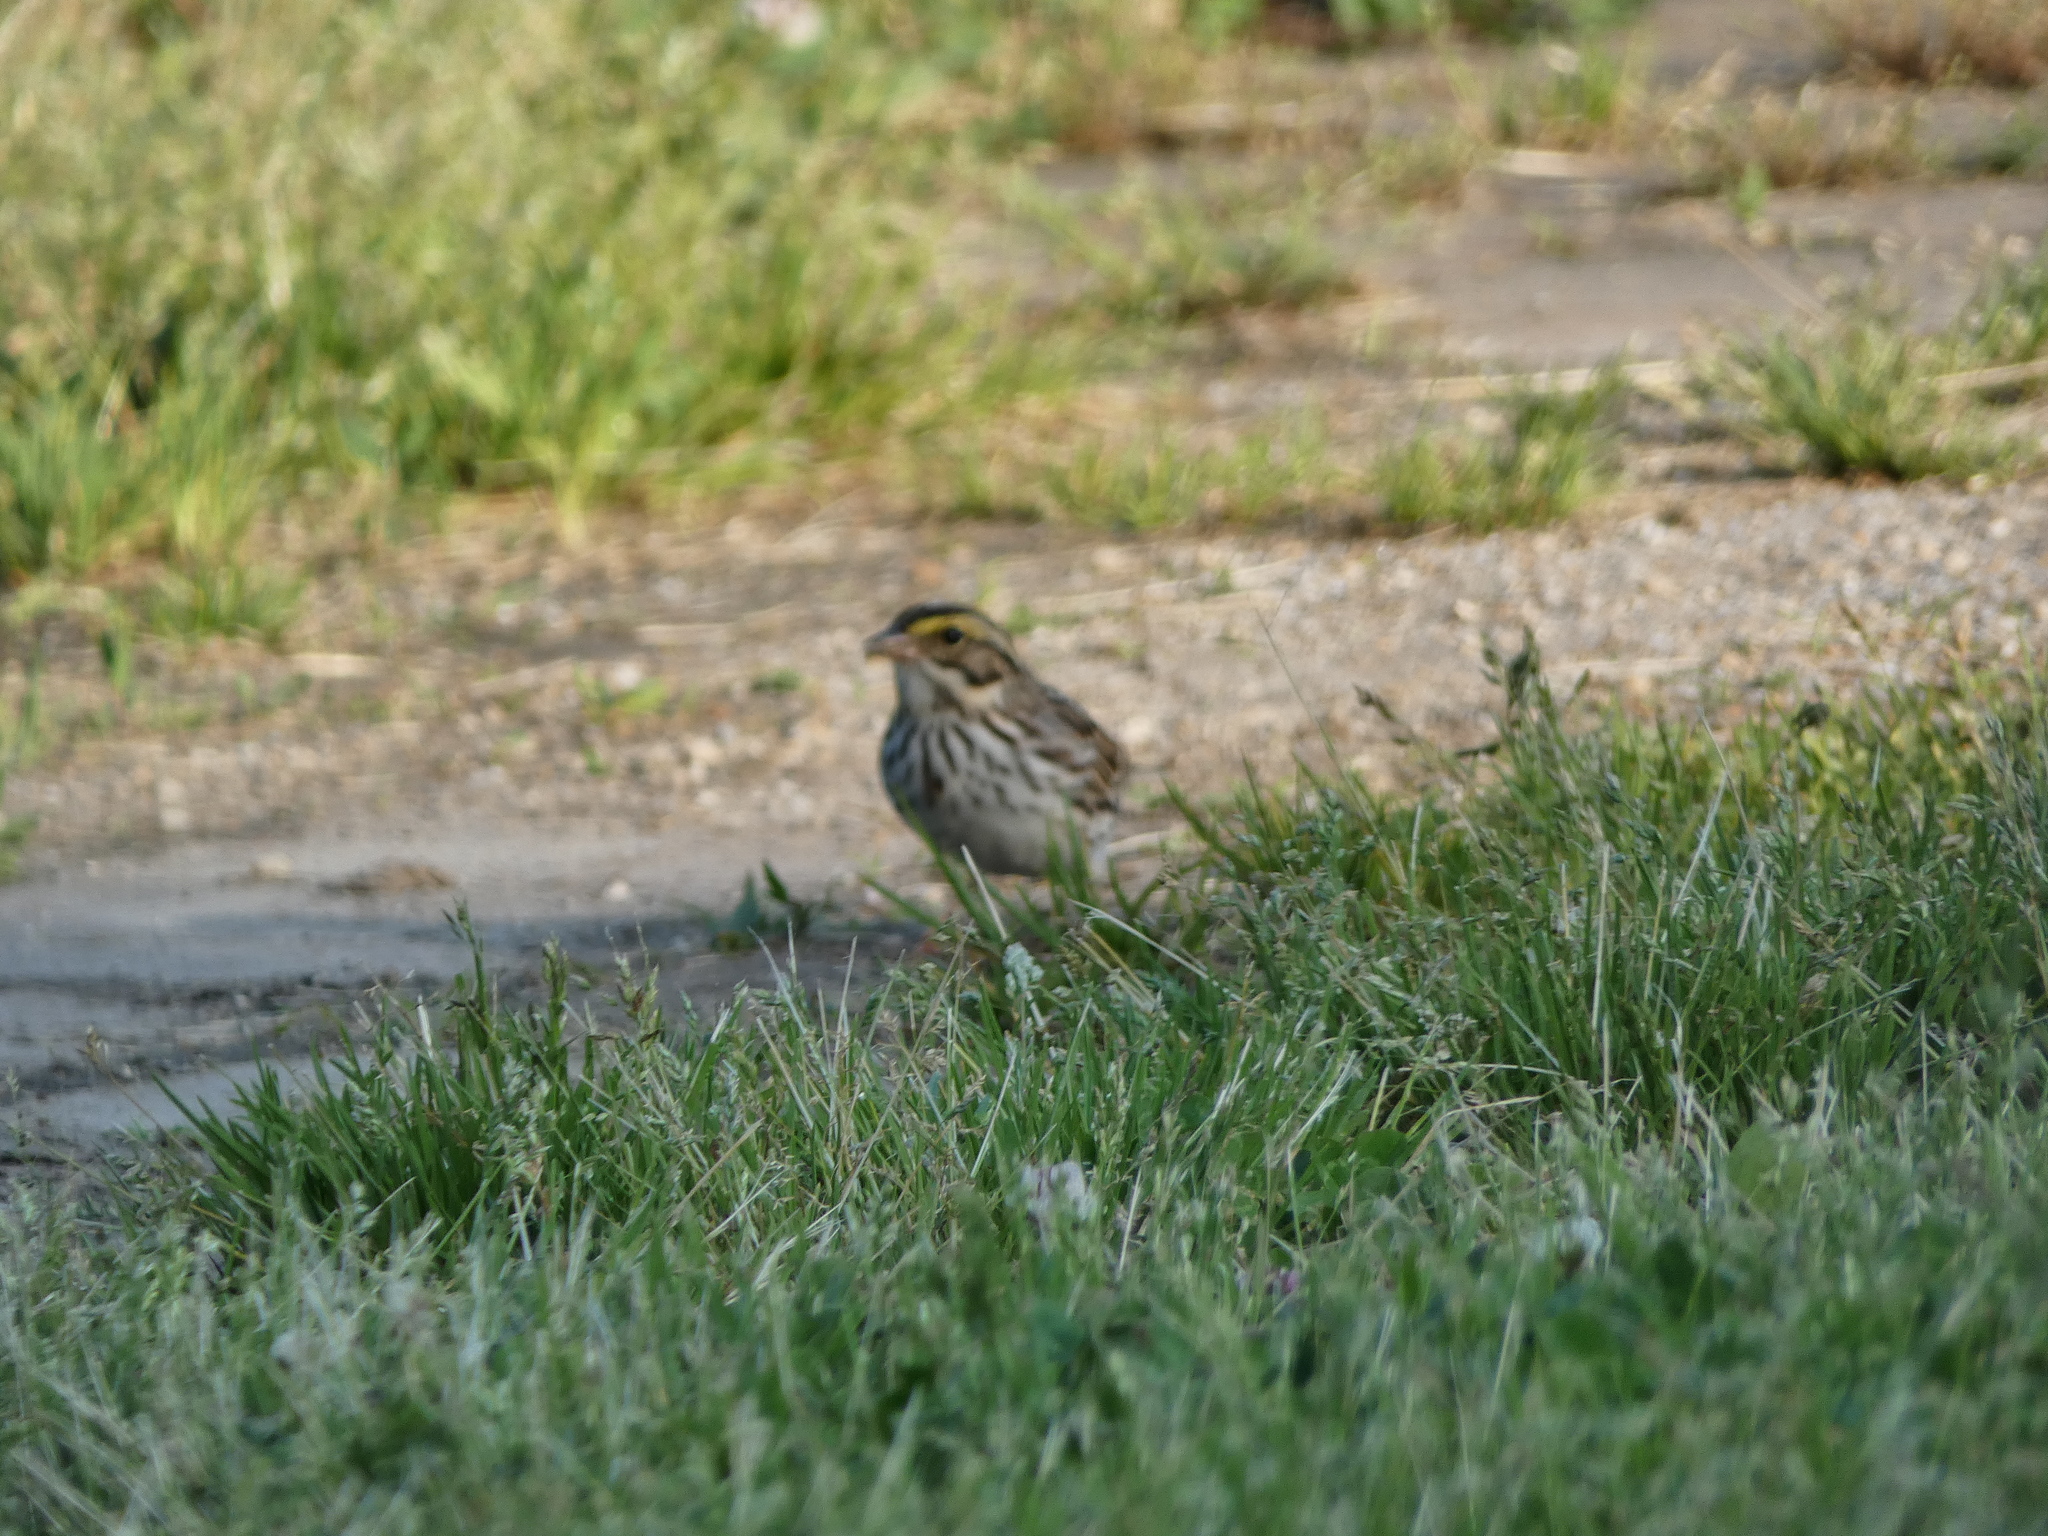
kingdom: Animalia
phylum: Chordata
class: Aves
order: Passeriformes
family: Passerellidae
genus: Passerculus
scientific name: Passerculus sandwichensis
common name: Savannah sparrow
